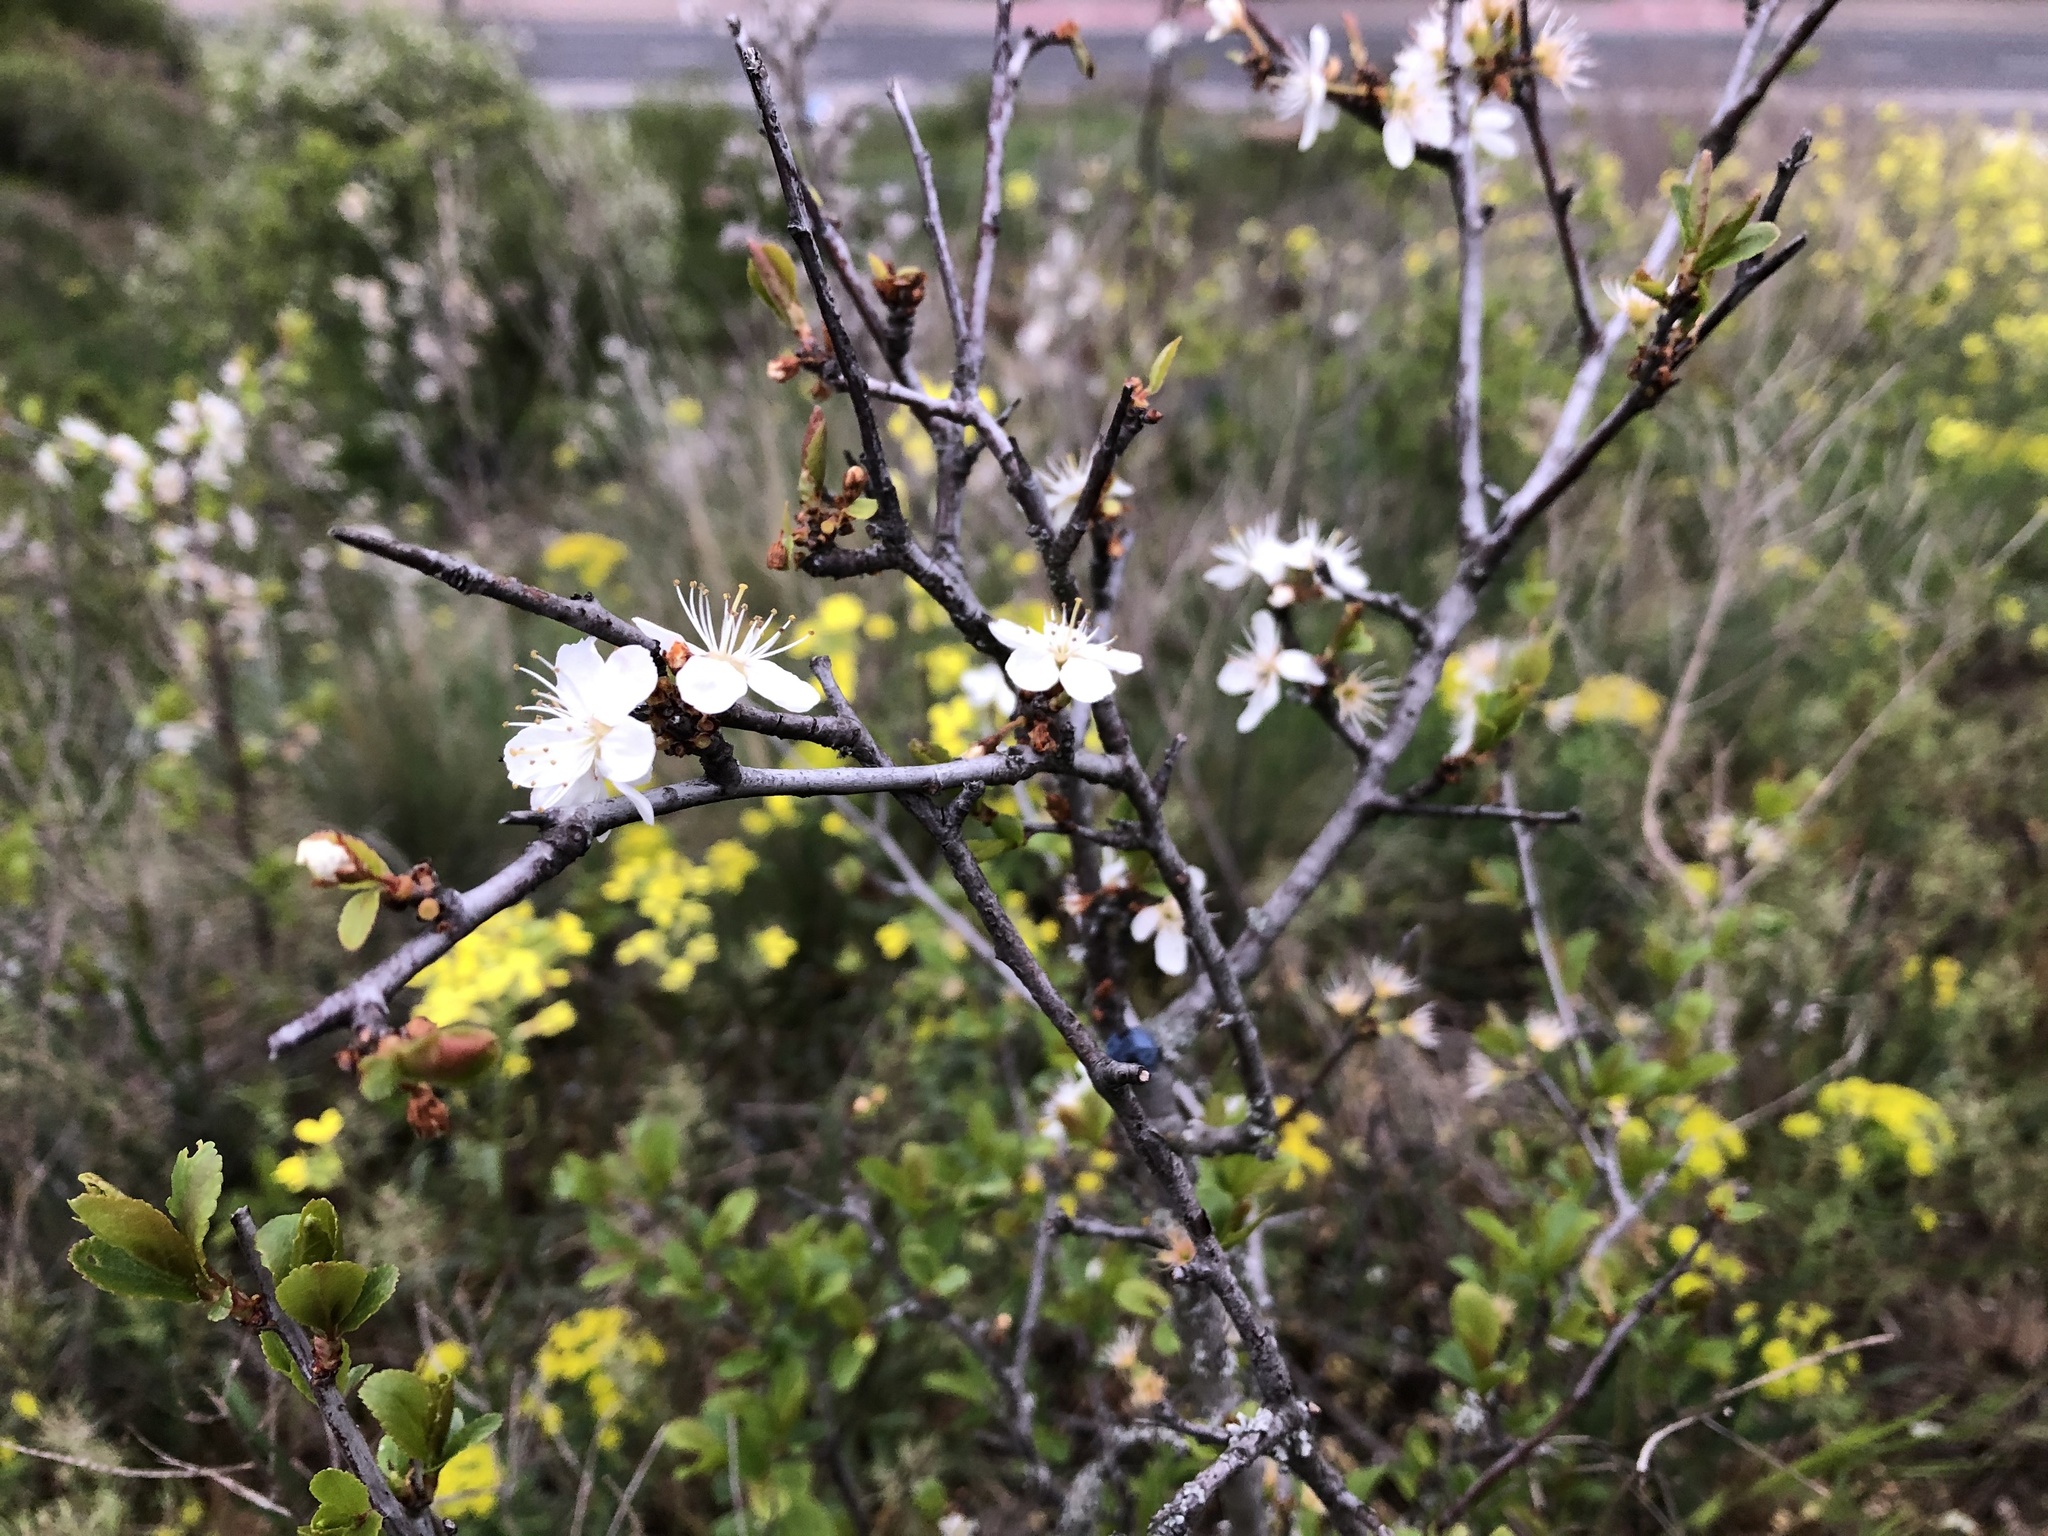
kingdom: Plantae
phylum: Tracheophyta
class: Magnoliopsida
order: Rosales
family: Rosaceae
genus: Prunus
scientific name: Prunus spinosa
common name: Blackthorn
